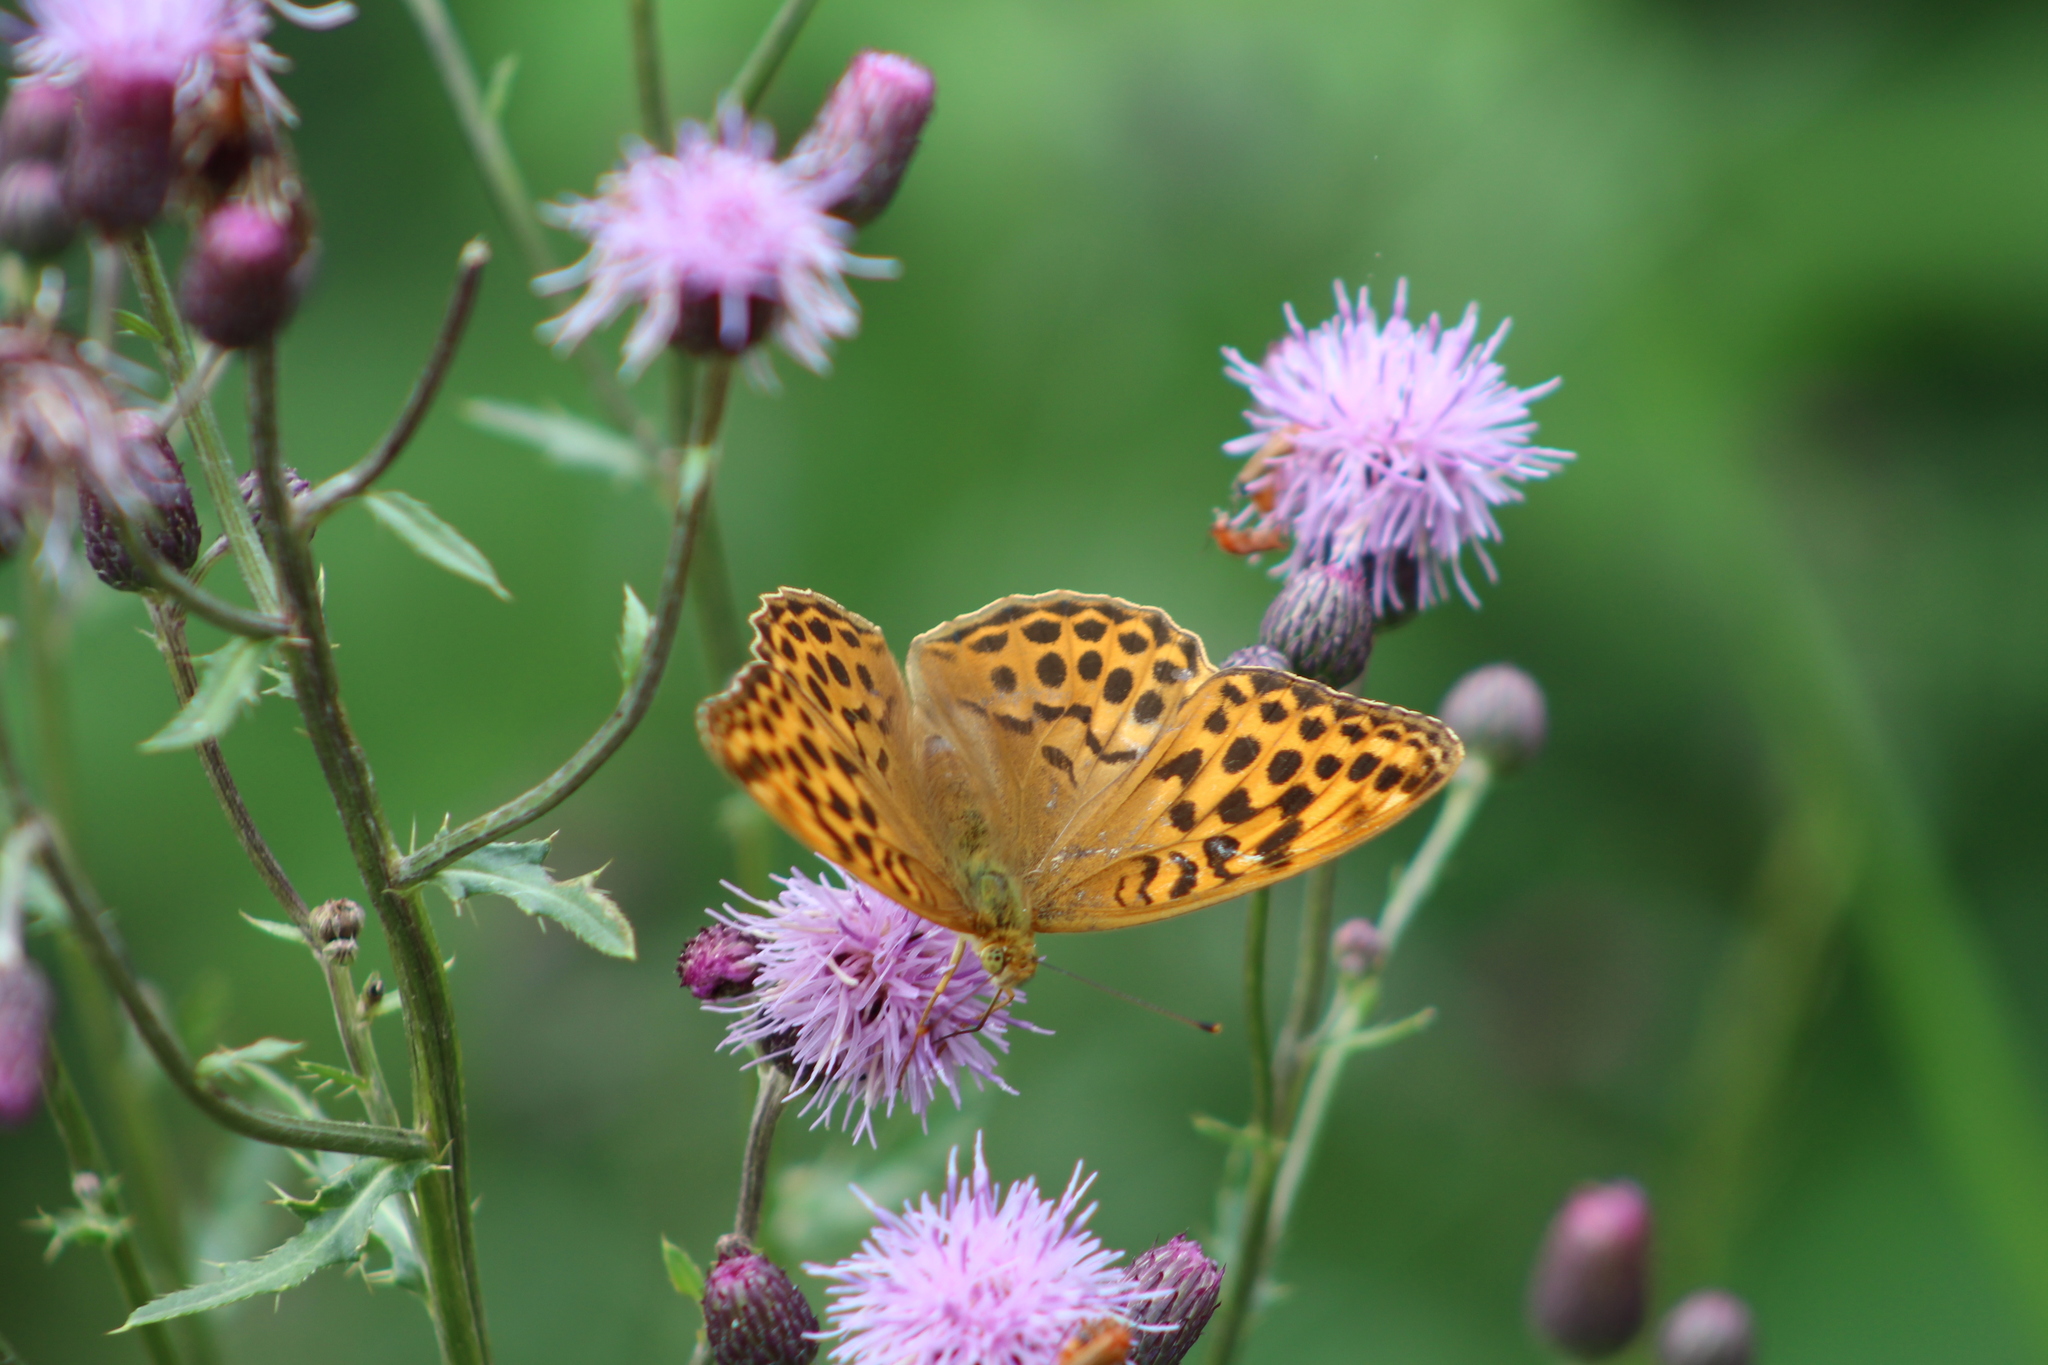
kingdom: Animalia
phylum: Arthropoda
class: Insecta
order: Lepidoptera
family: Nymphalidae
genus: Argynnis
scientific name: Argynnis paphia
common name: Silver-washed fritillary
